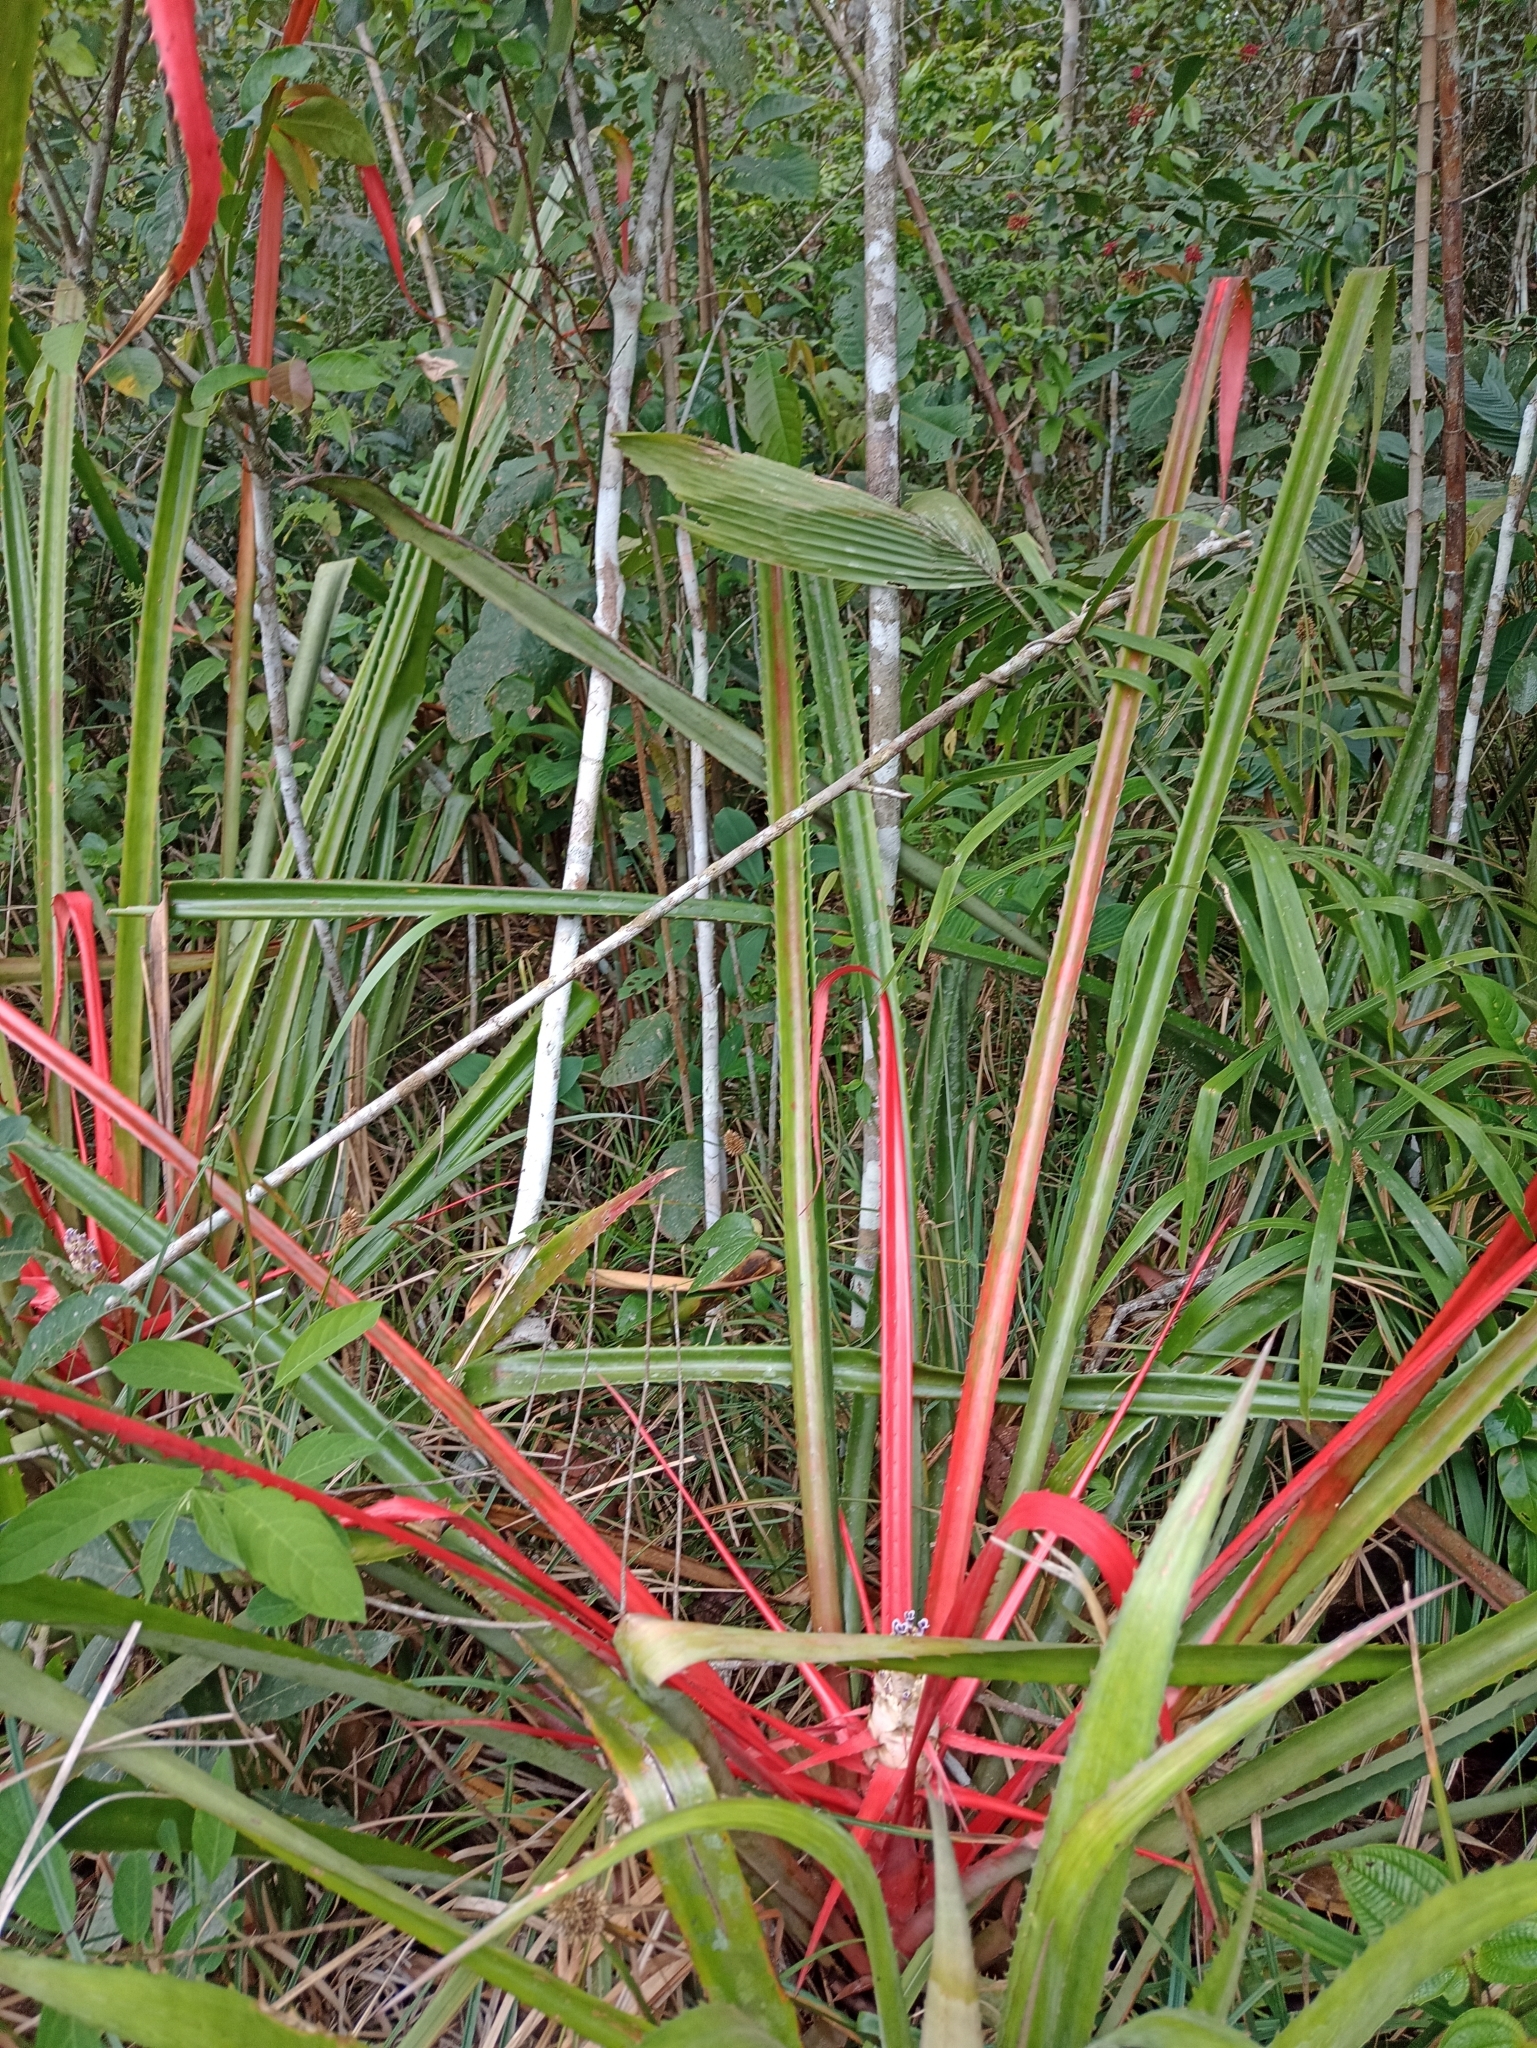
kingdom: Plantae
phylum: Tracheophyta
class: Liliopsida
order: Poales
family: Bromeliaceae
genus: Bromelia
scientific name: Bromelia pinguin
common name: Pinguin
